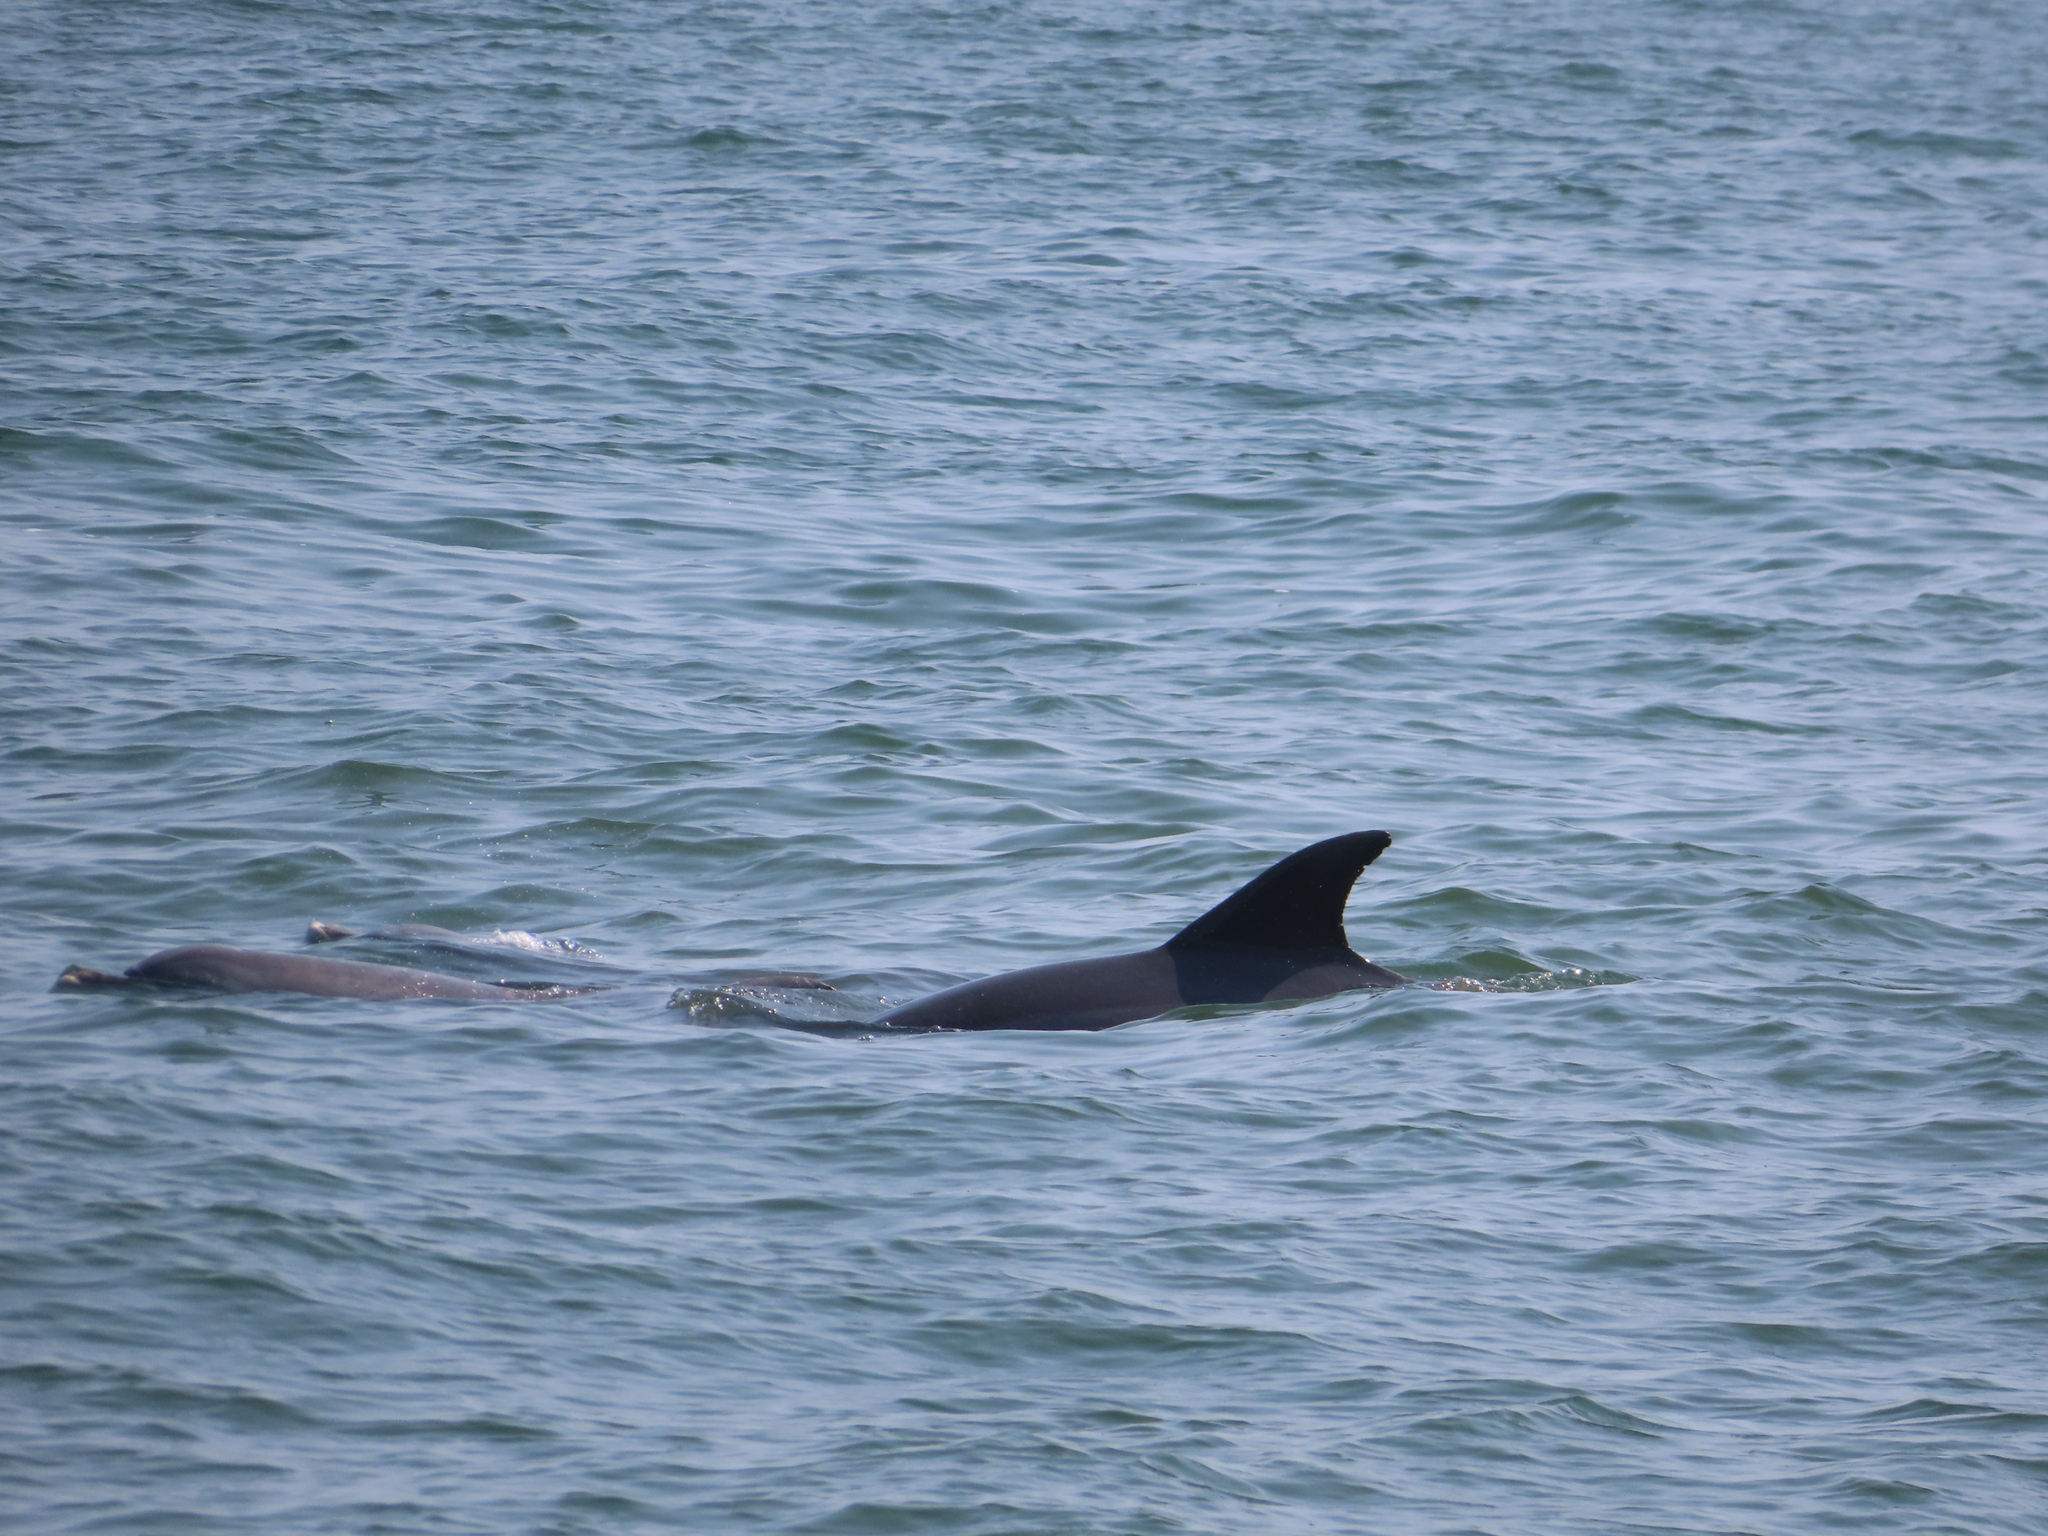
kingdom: Animalia
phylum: Chordata
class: Mammalia
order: Cetacea
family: Delphinidae
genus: Tursiops
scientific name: Tursiops truncatus
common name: Bottlenose dolphin
